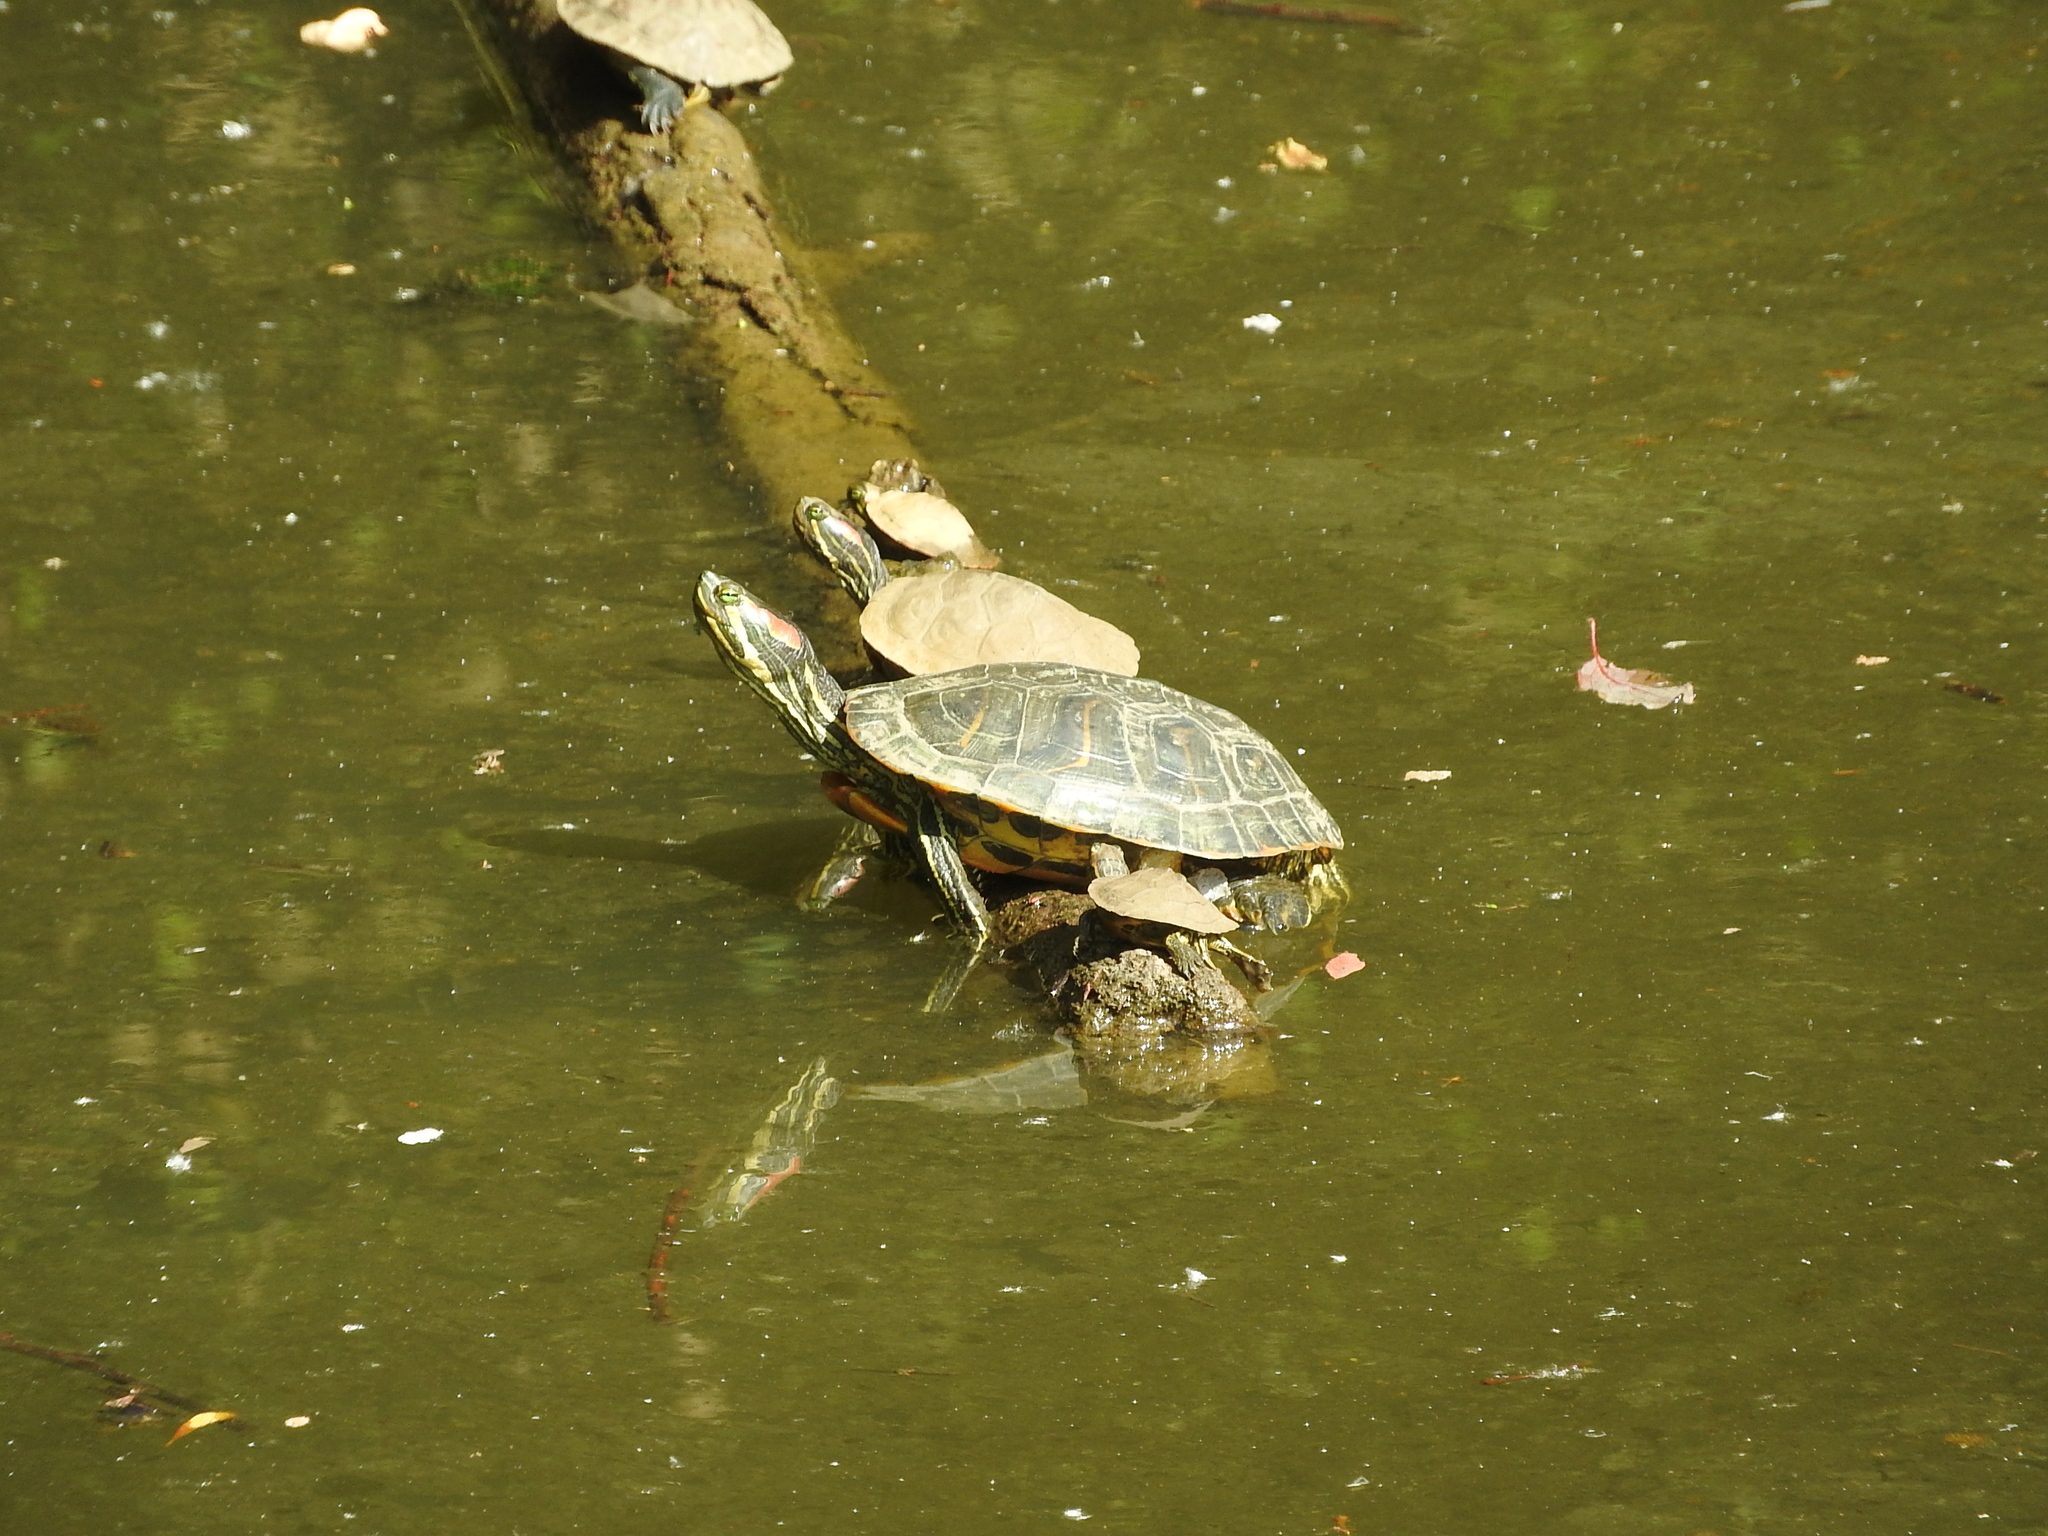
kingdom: Animalia
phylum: Chordata
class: Testudines
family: Emydidae
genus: Trachemys
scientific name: Trachemys scripta
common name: Slider
